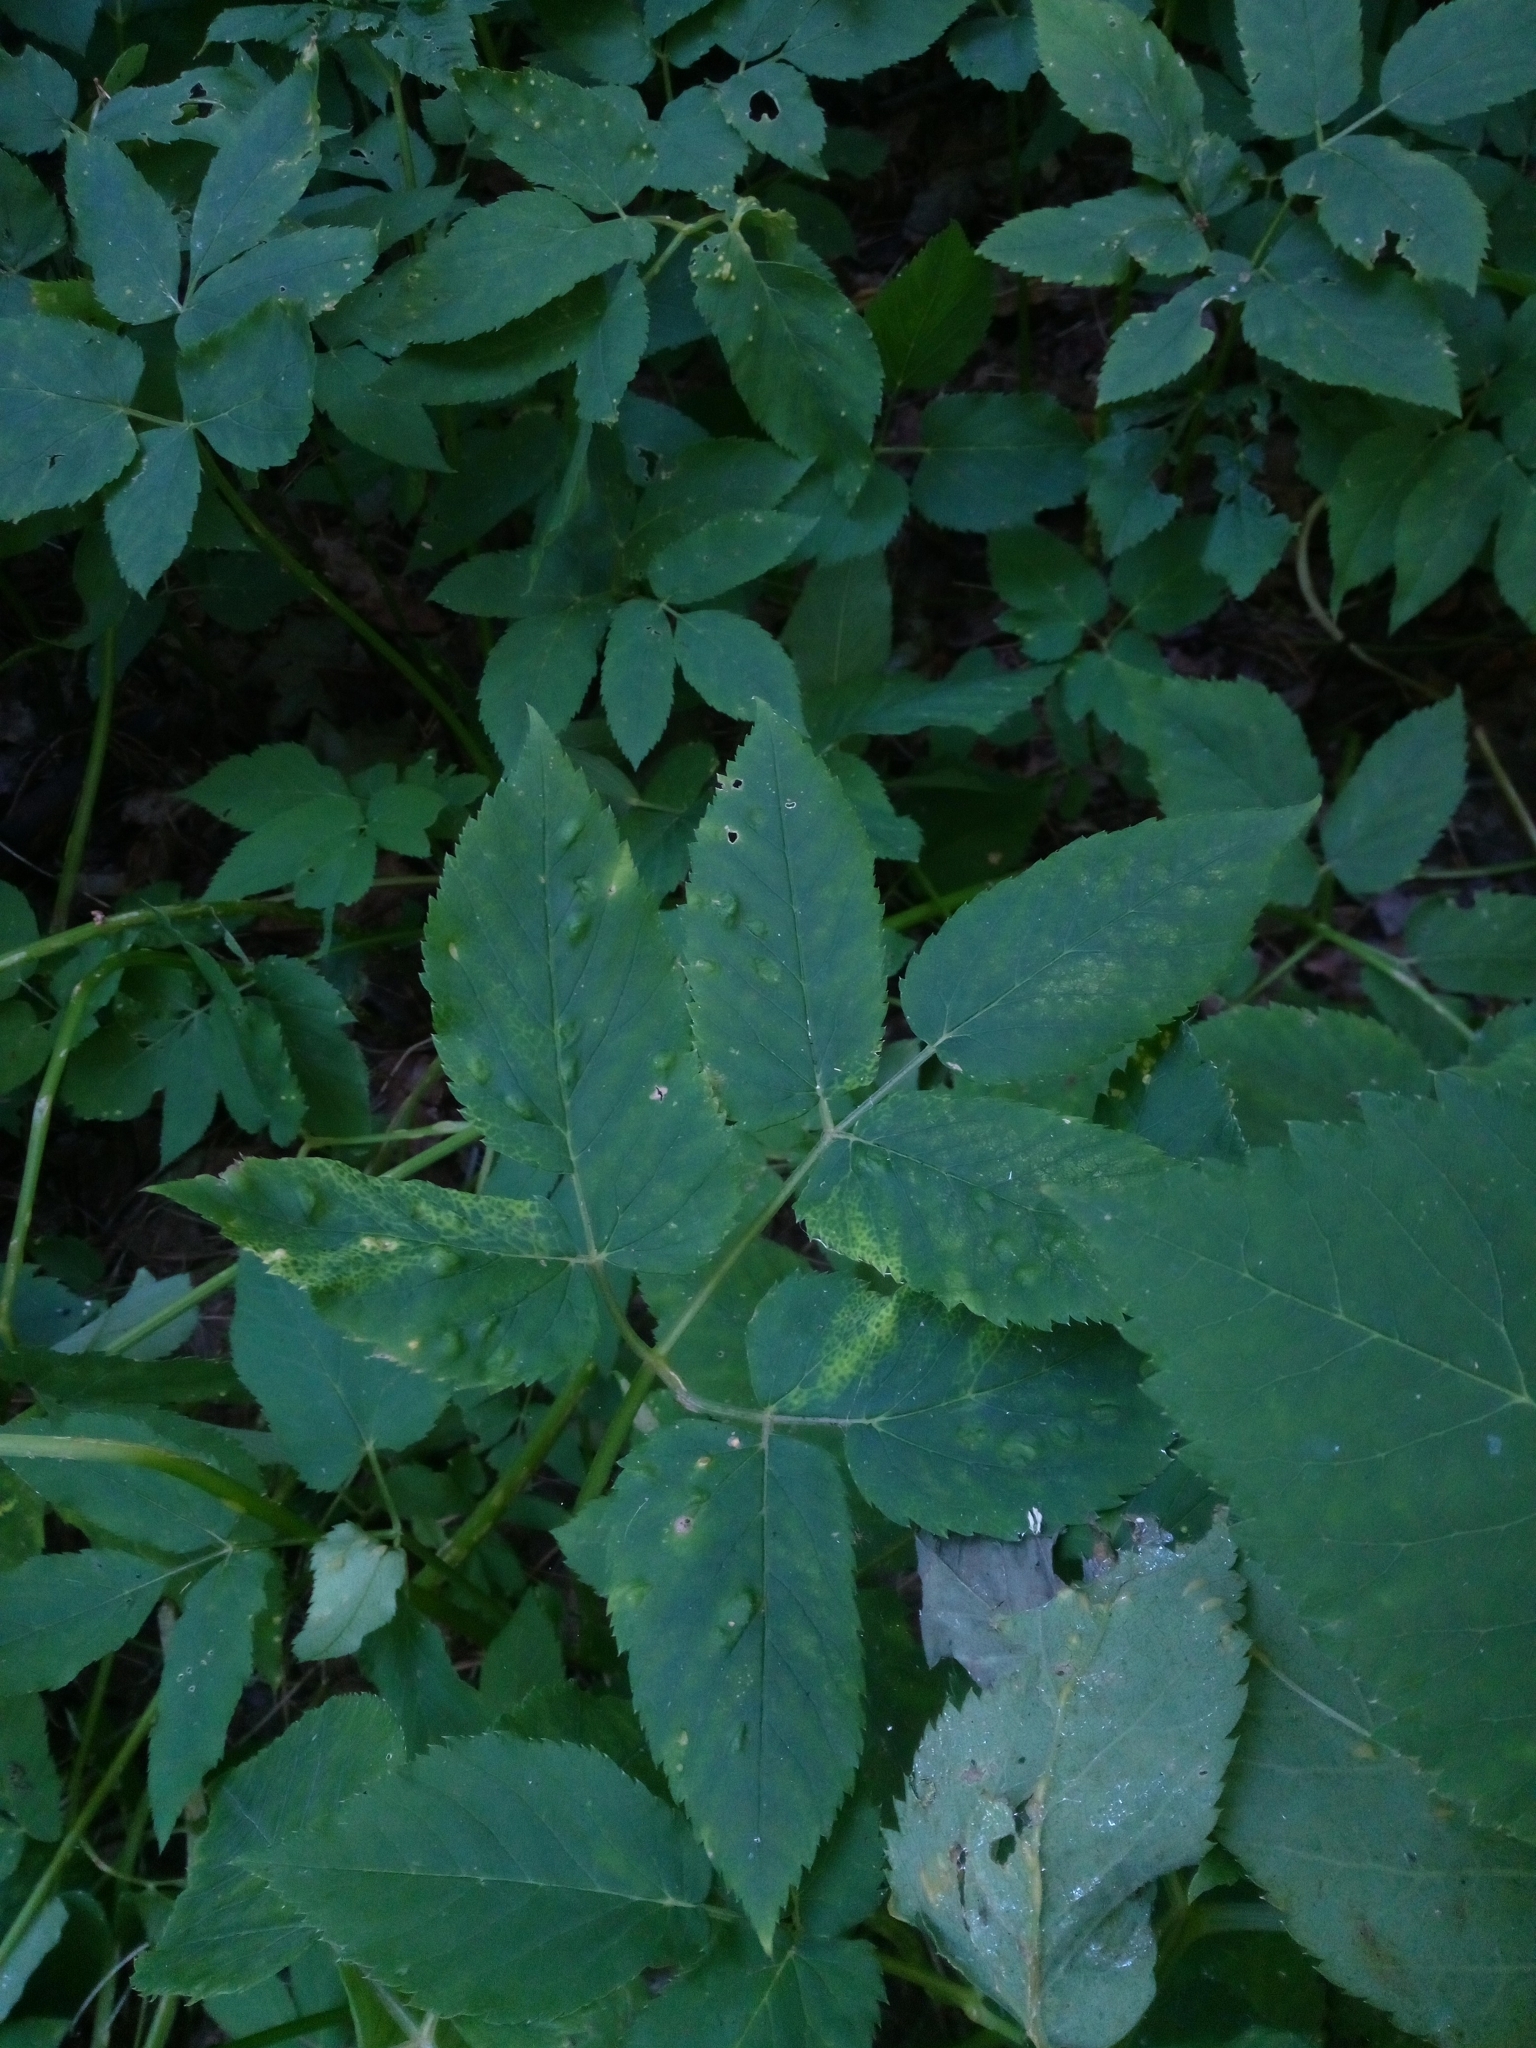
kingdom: Plantae
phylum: Tracheophyta
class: Magnoliopsida
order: Apiales
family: Apiaceae
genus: Aegopodium
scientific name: Aegopodium podagraria
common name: Ground-elder
